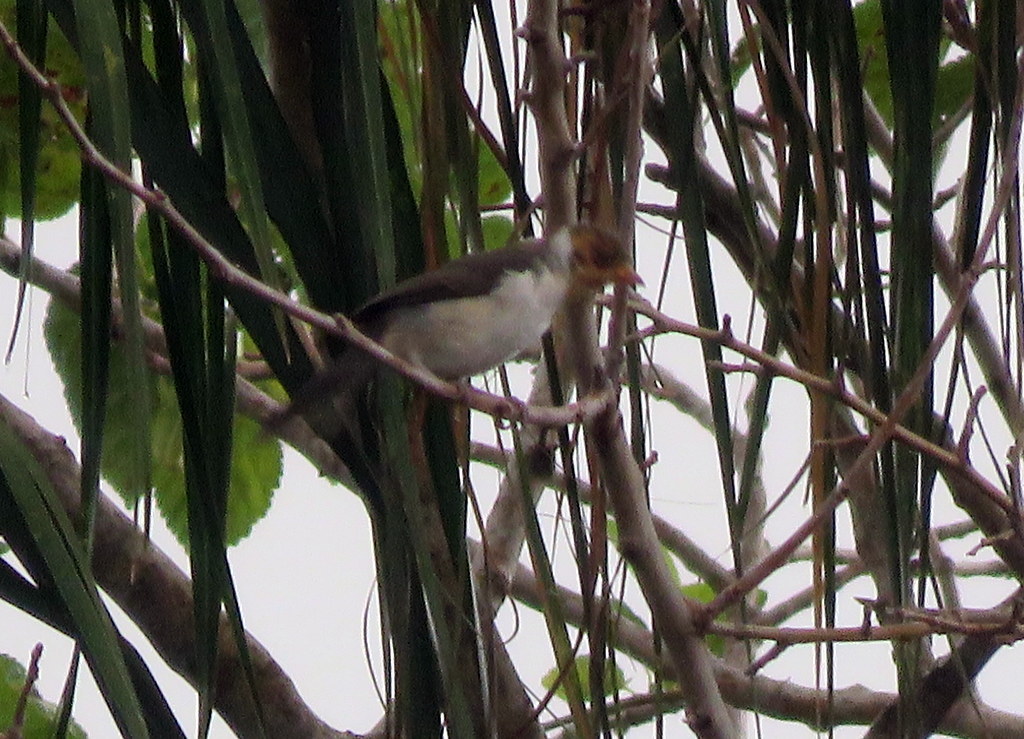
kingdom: Animalia
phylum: Chordata
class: Aves
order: Passeriformes
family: Thraupidae
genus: Paroaria
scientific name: Paroaria capitata
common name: Yellow-billed cardinal
